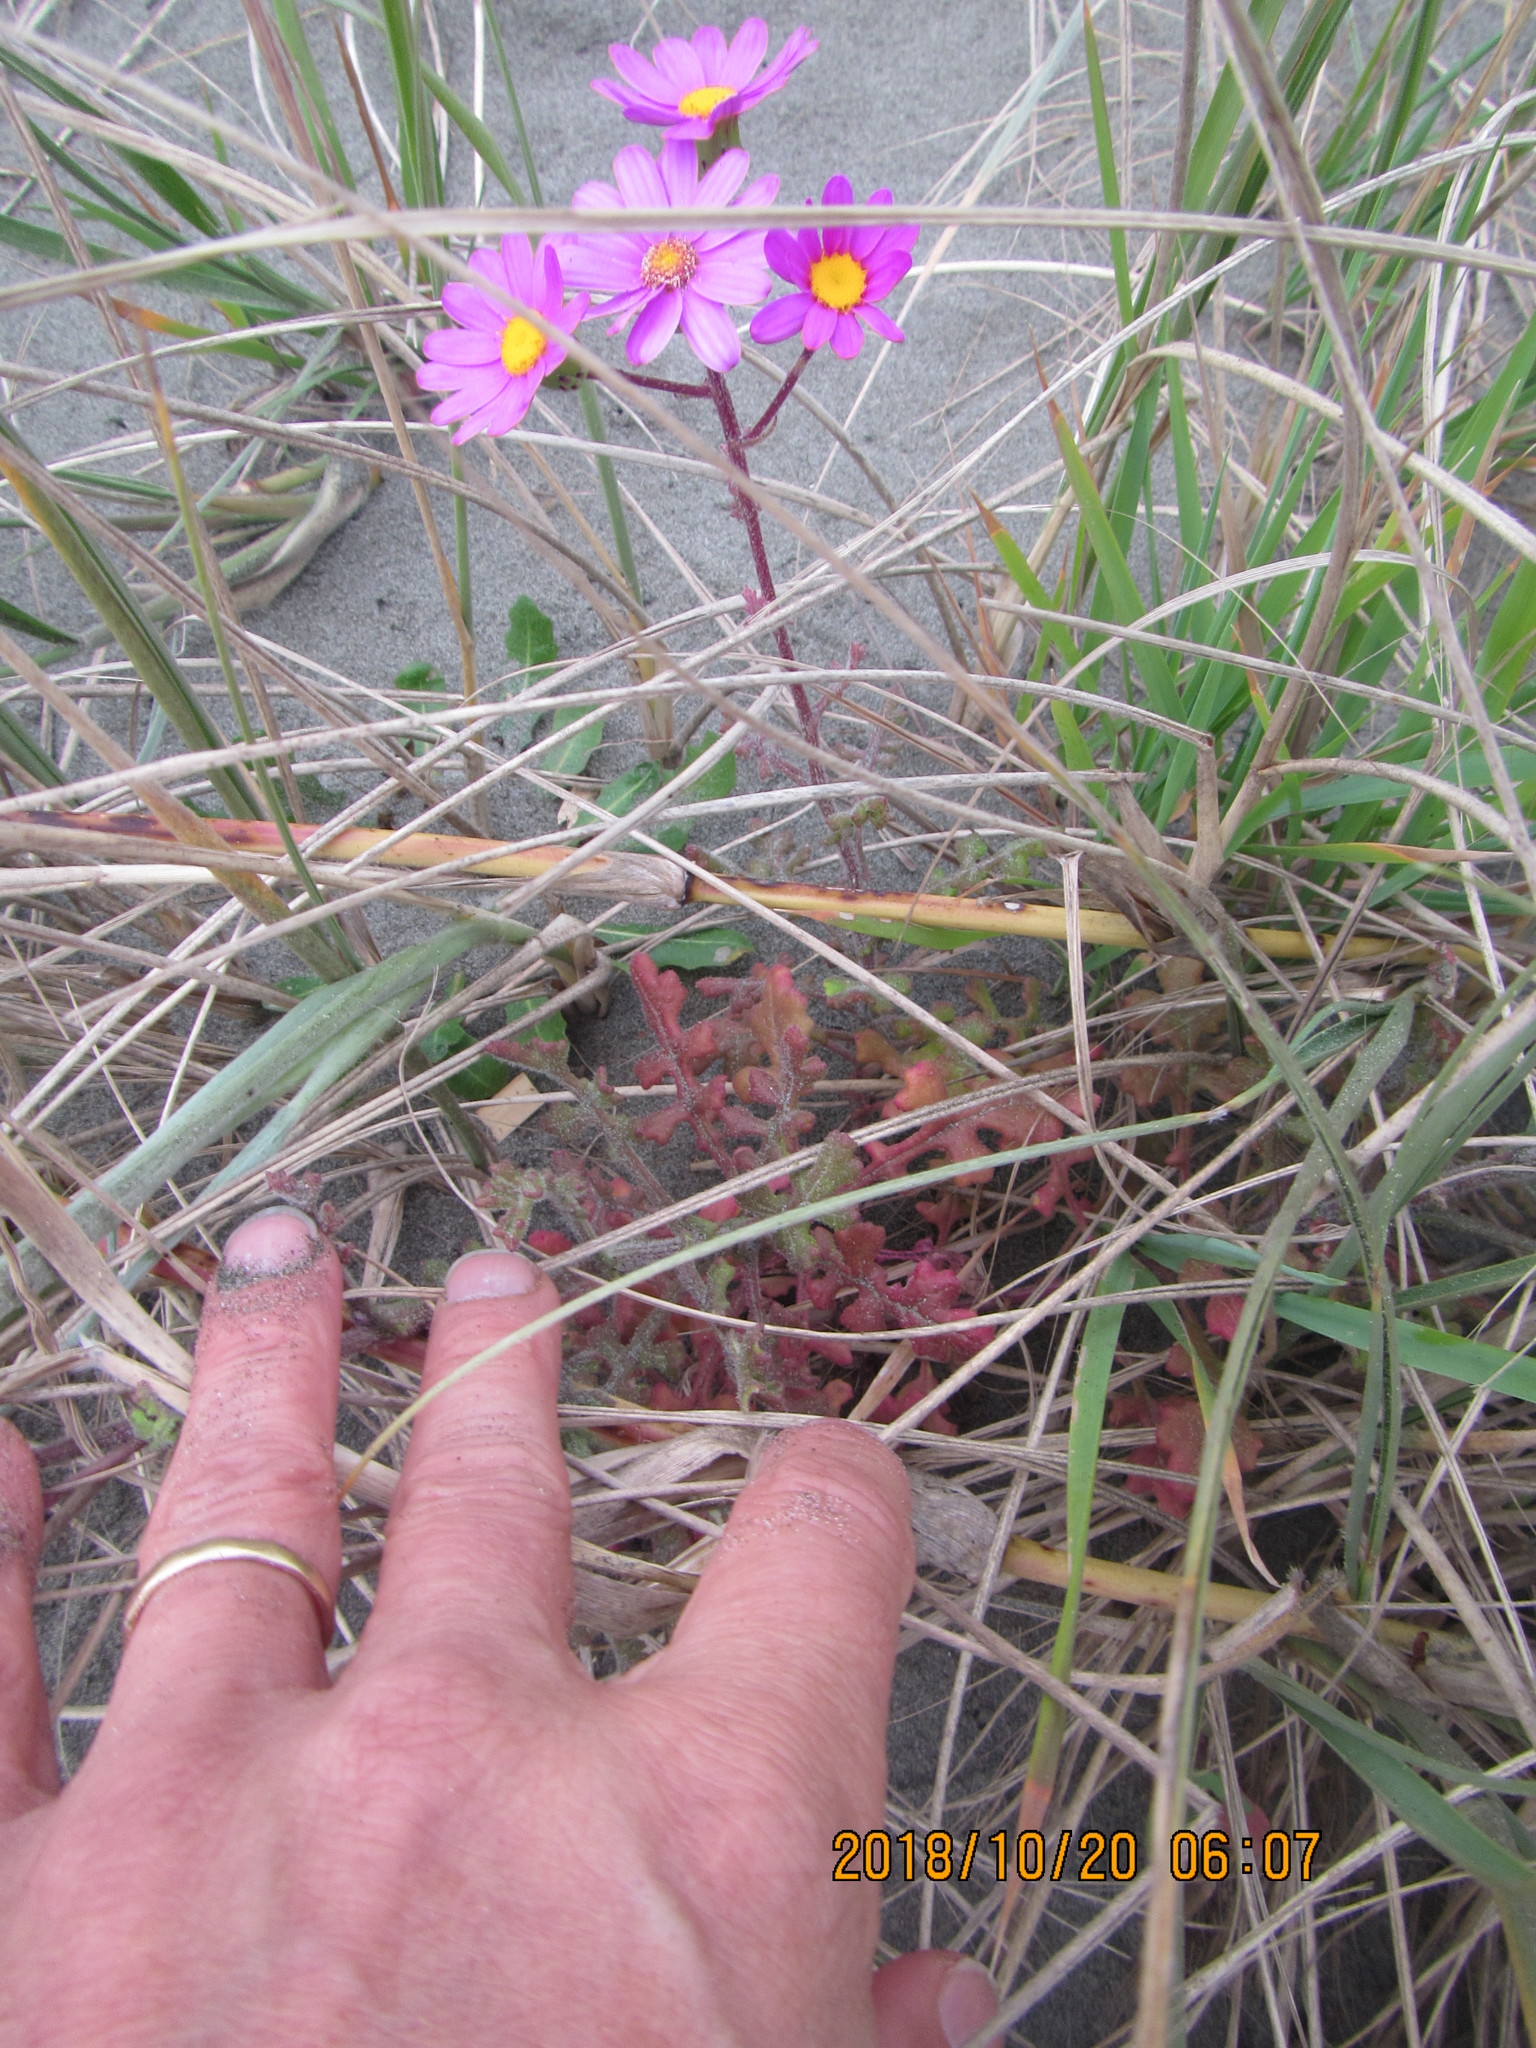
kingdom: Plantae
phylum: Tracheophyta
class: Magnoliopsida
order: Asterales
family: Asteraceae
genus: Senecio
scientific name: Senecio elegans
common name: Purple groundsel
